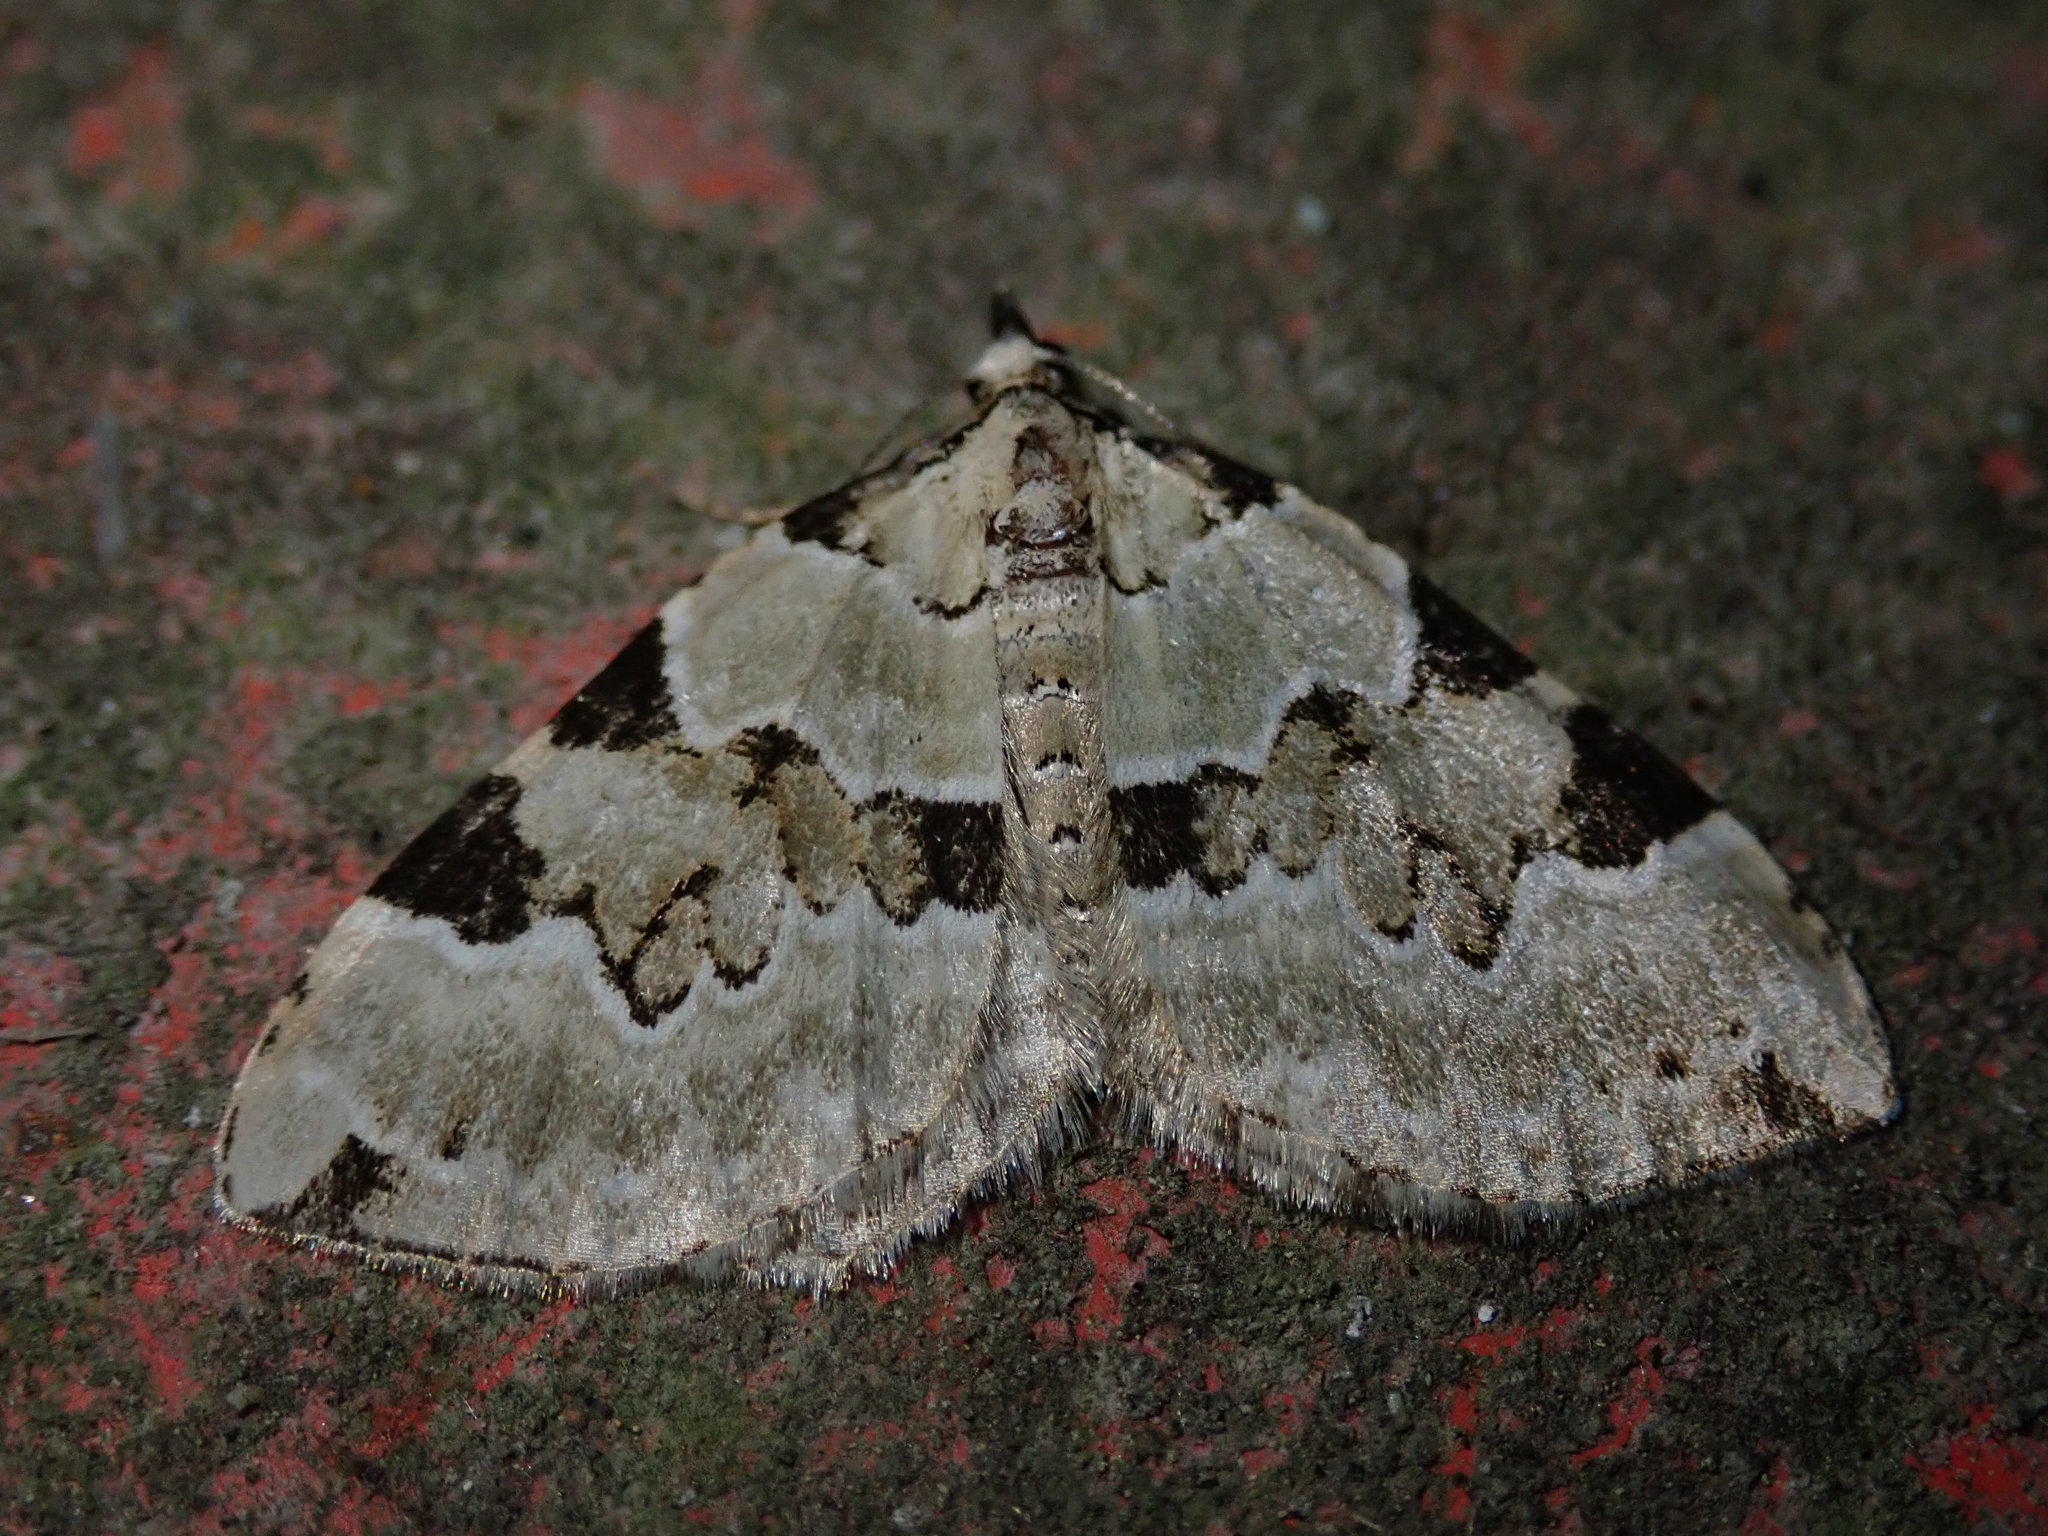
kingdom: Animalia
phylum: Arthropoda
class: Insecta
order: Lepidoptera
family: Geometridae
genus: Colostygia
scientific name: Colostygia pectinataria
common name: Green carpet
